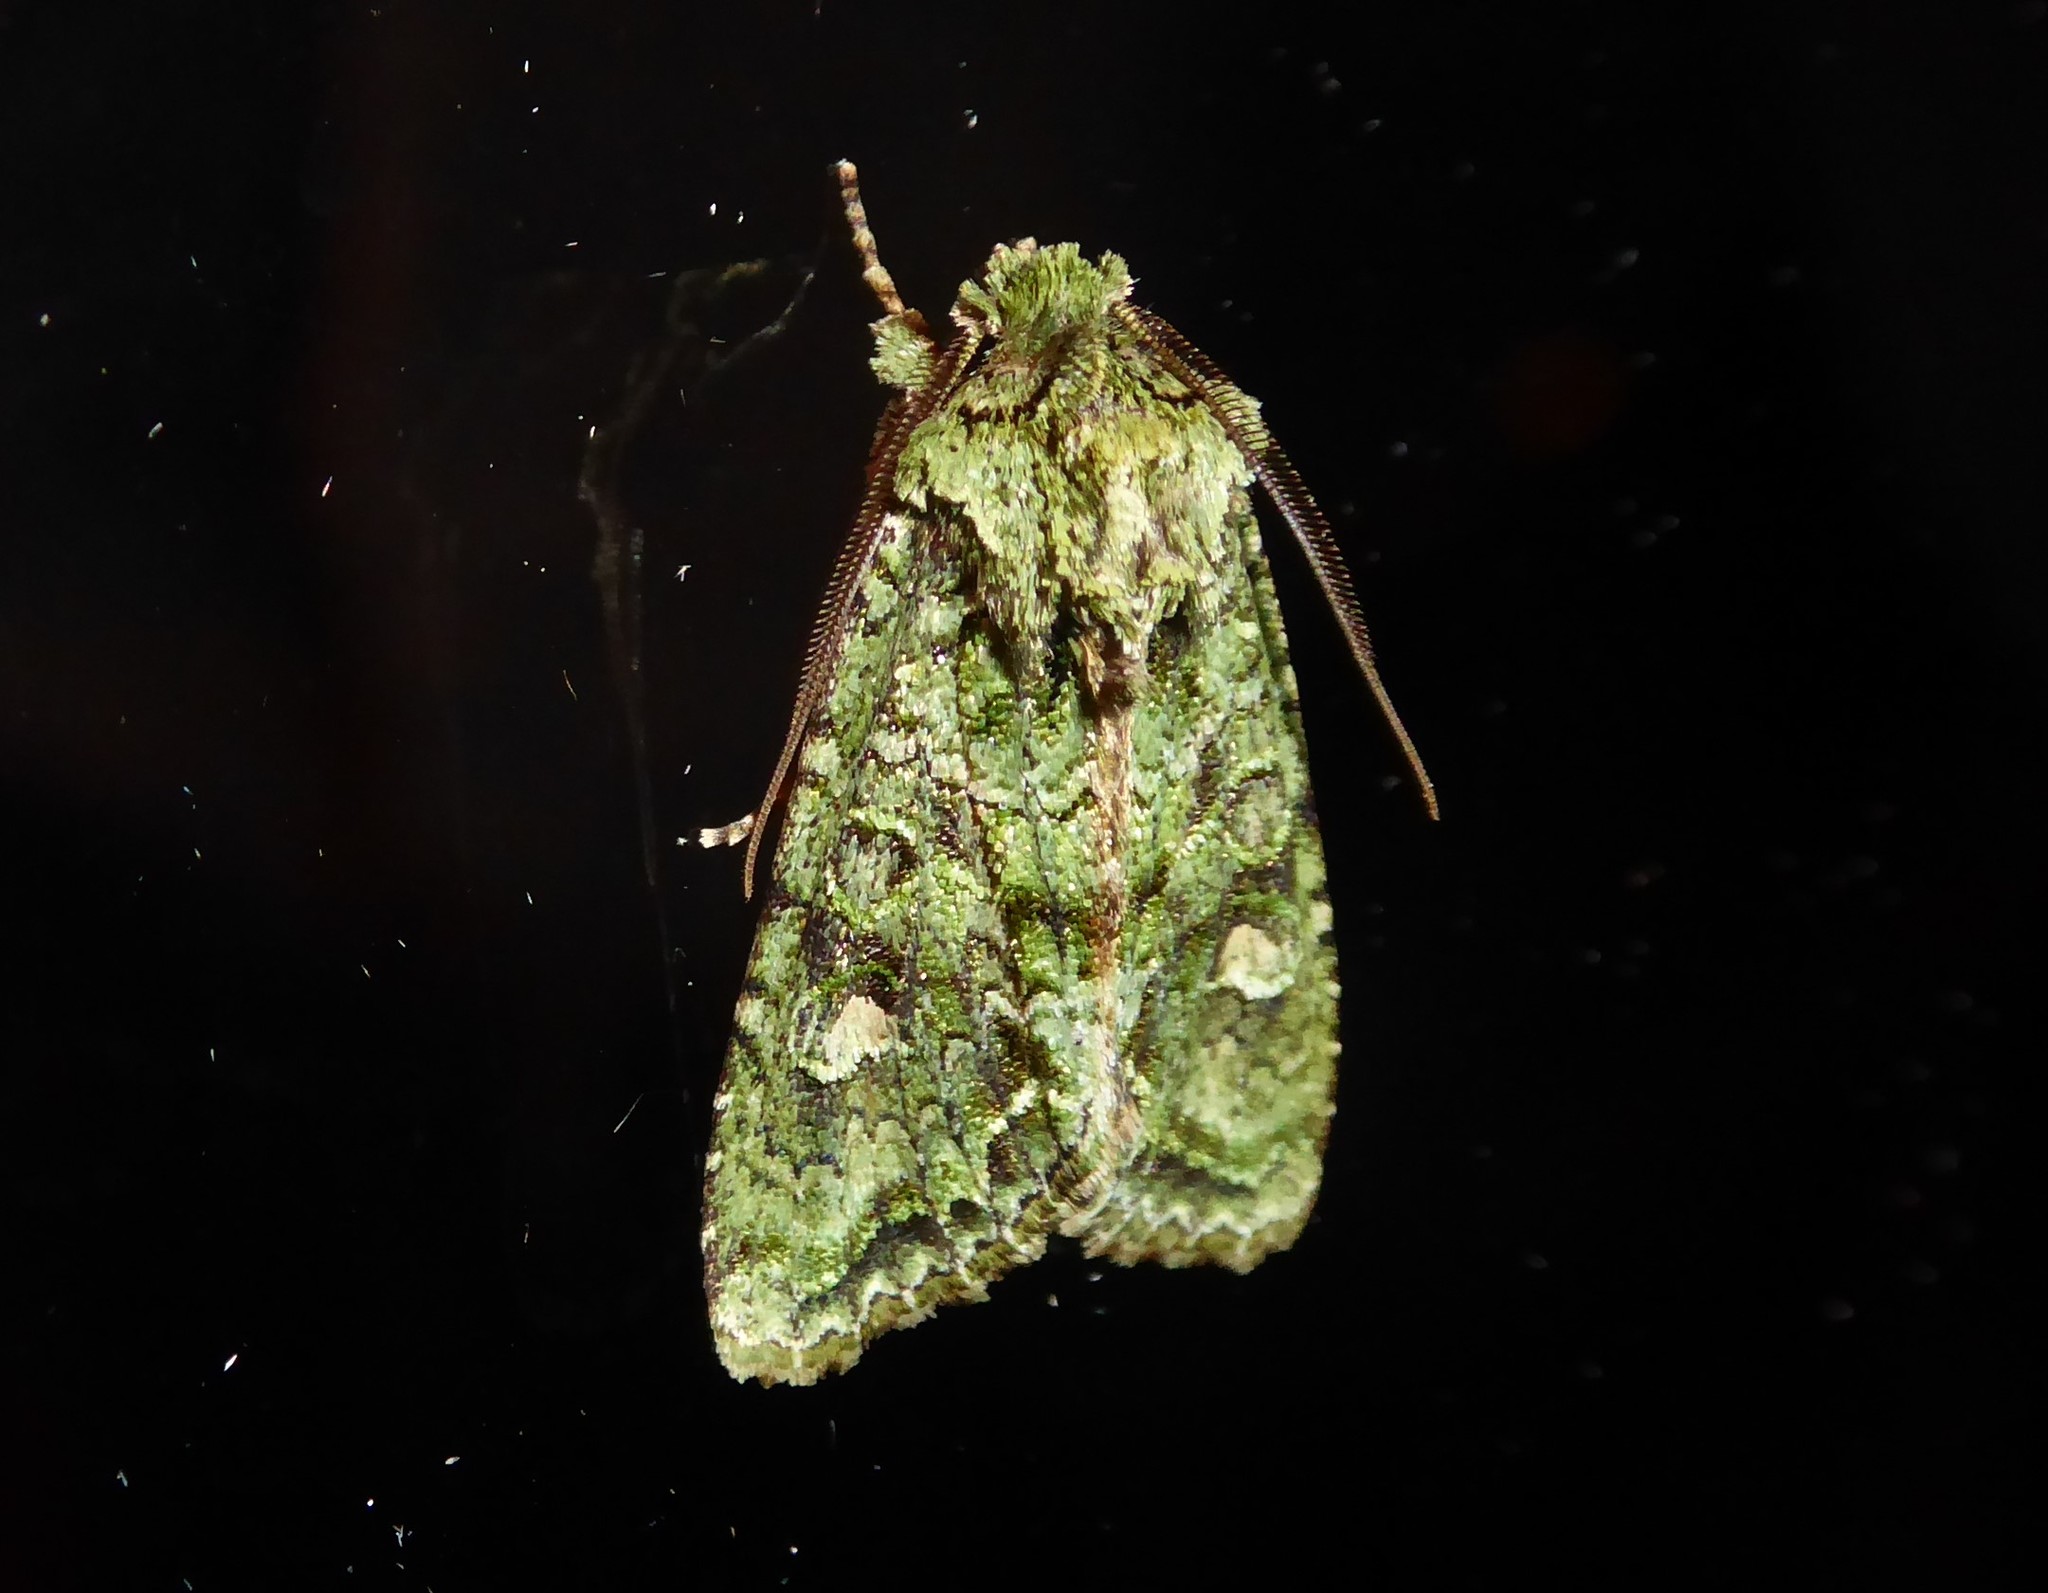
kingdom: Animalia
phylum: Arthropoda
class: Insecta
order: Lepidoptera
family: Noctuidae
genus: Ichneutica
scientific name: Ichneutica
